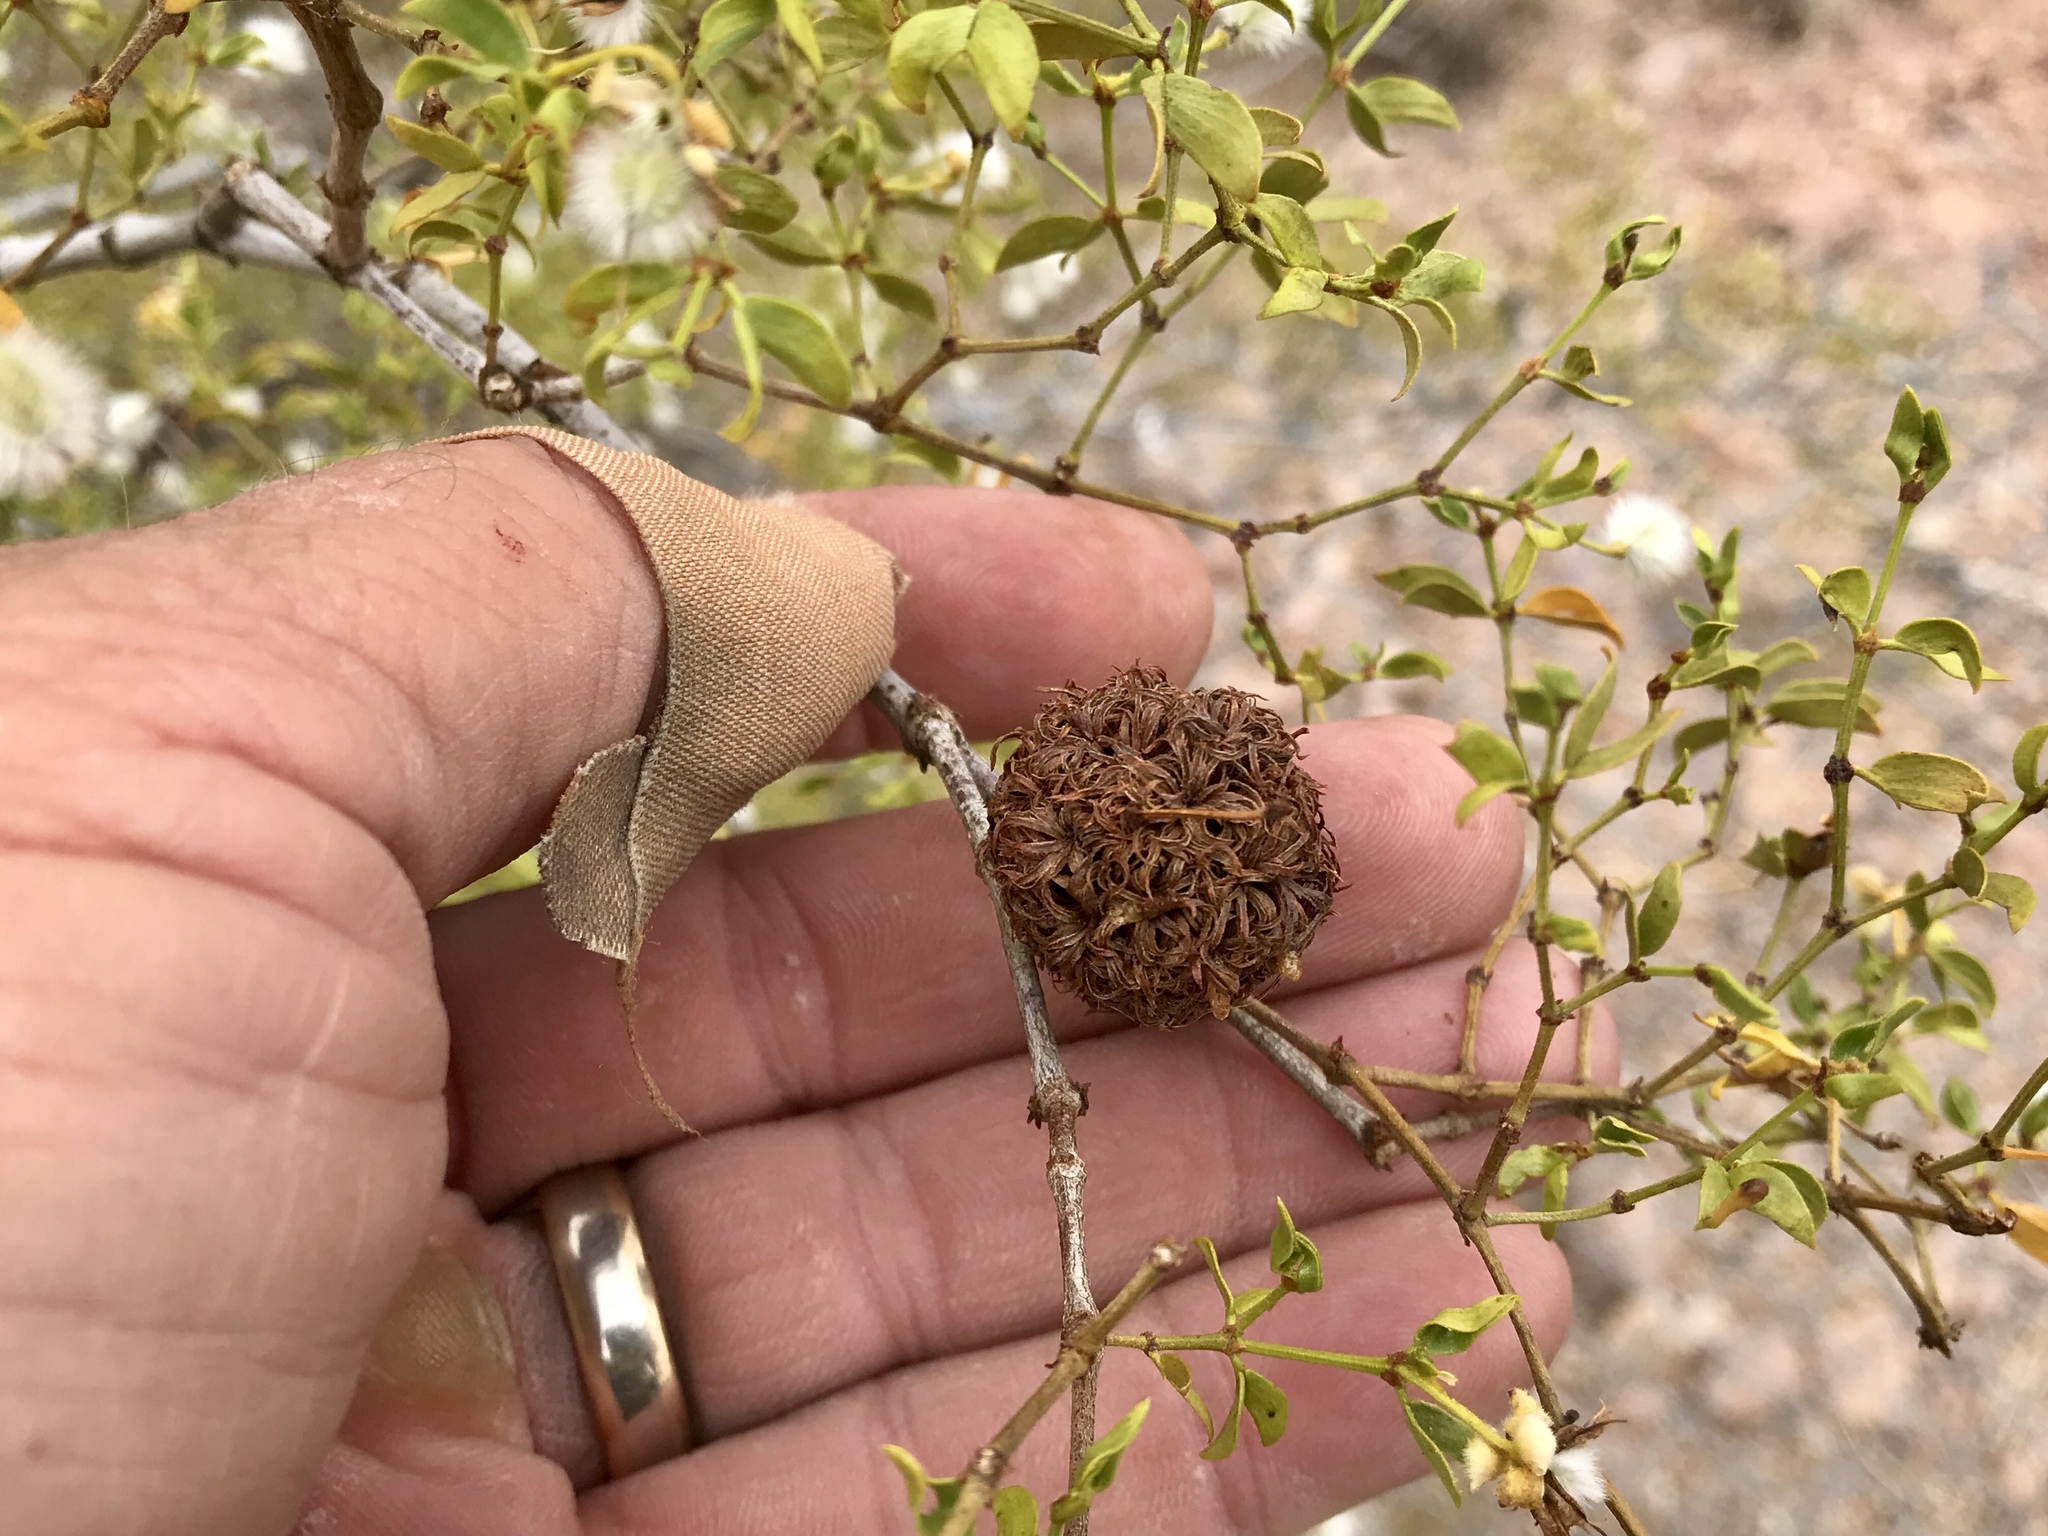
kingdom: Animalia
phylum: Arthropoda
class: Insecta
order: Diptera
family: Cecidomyiidae
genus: Asphondylia
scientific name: Asphondylia auripila
